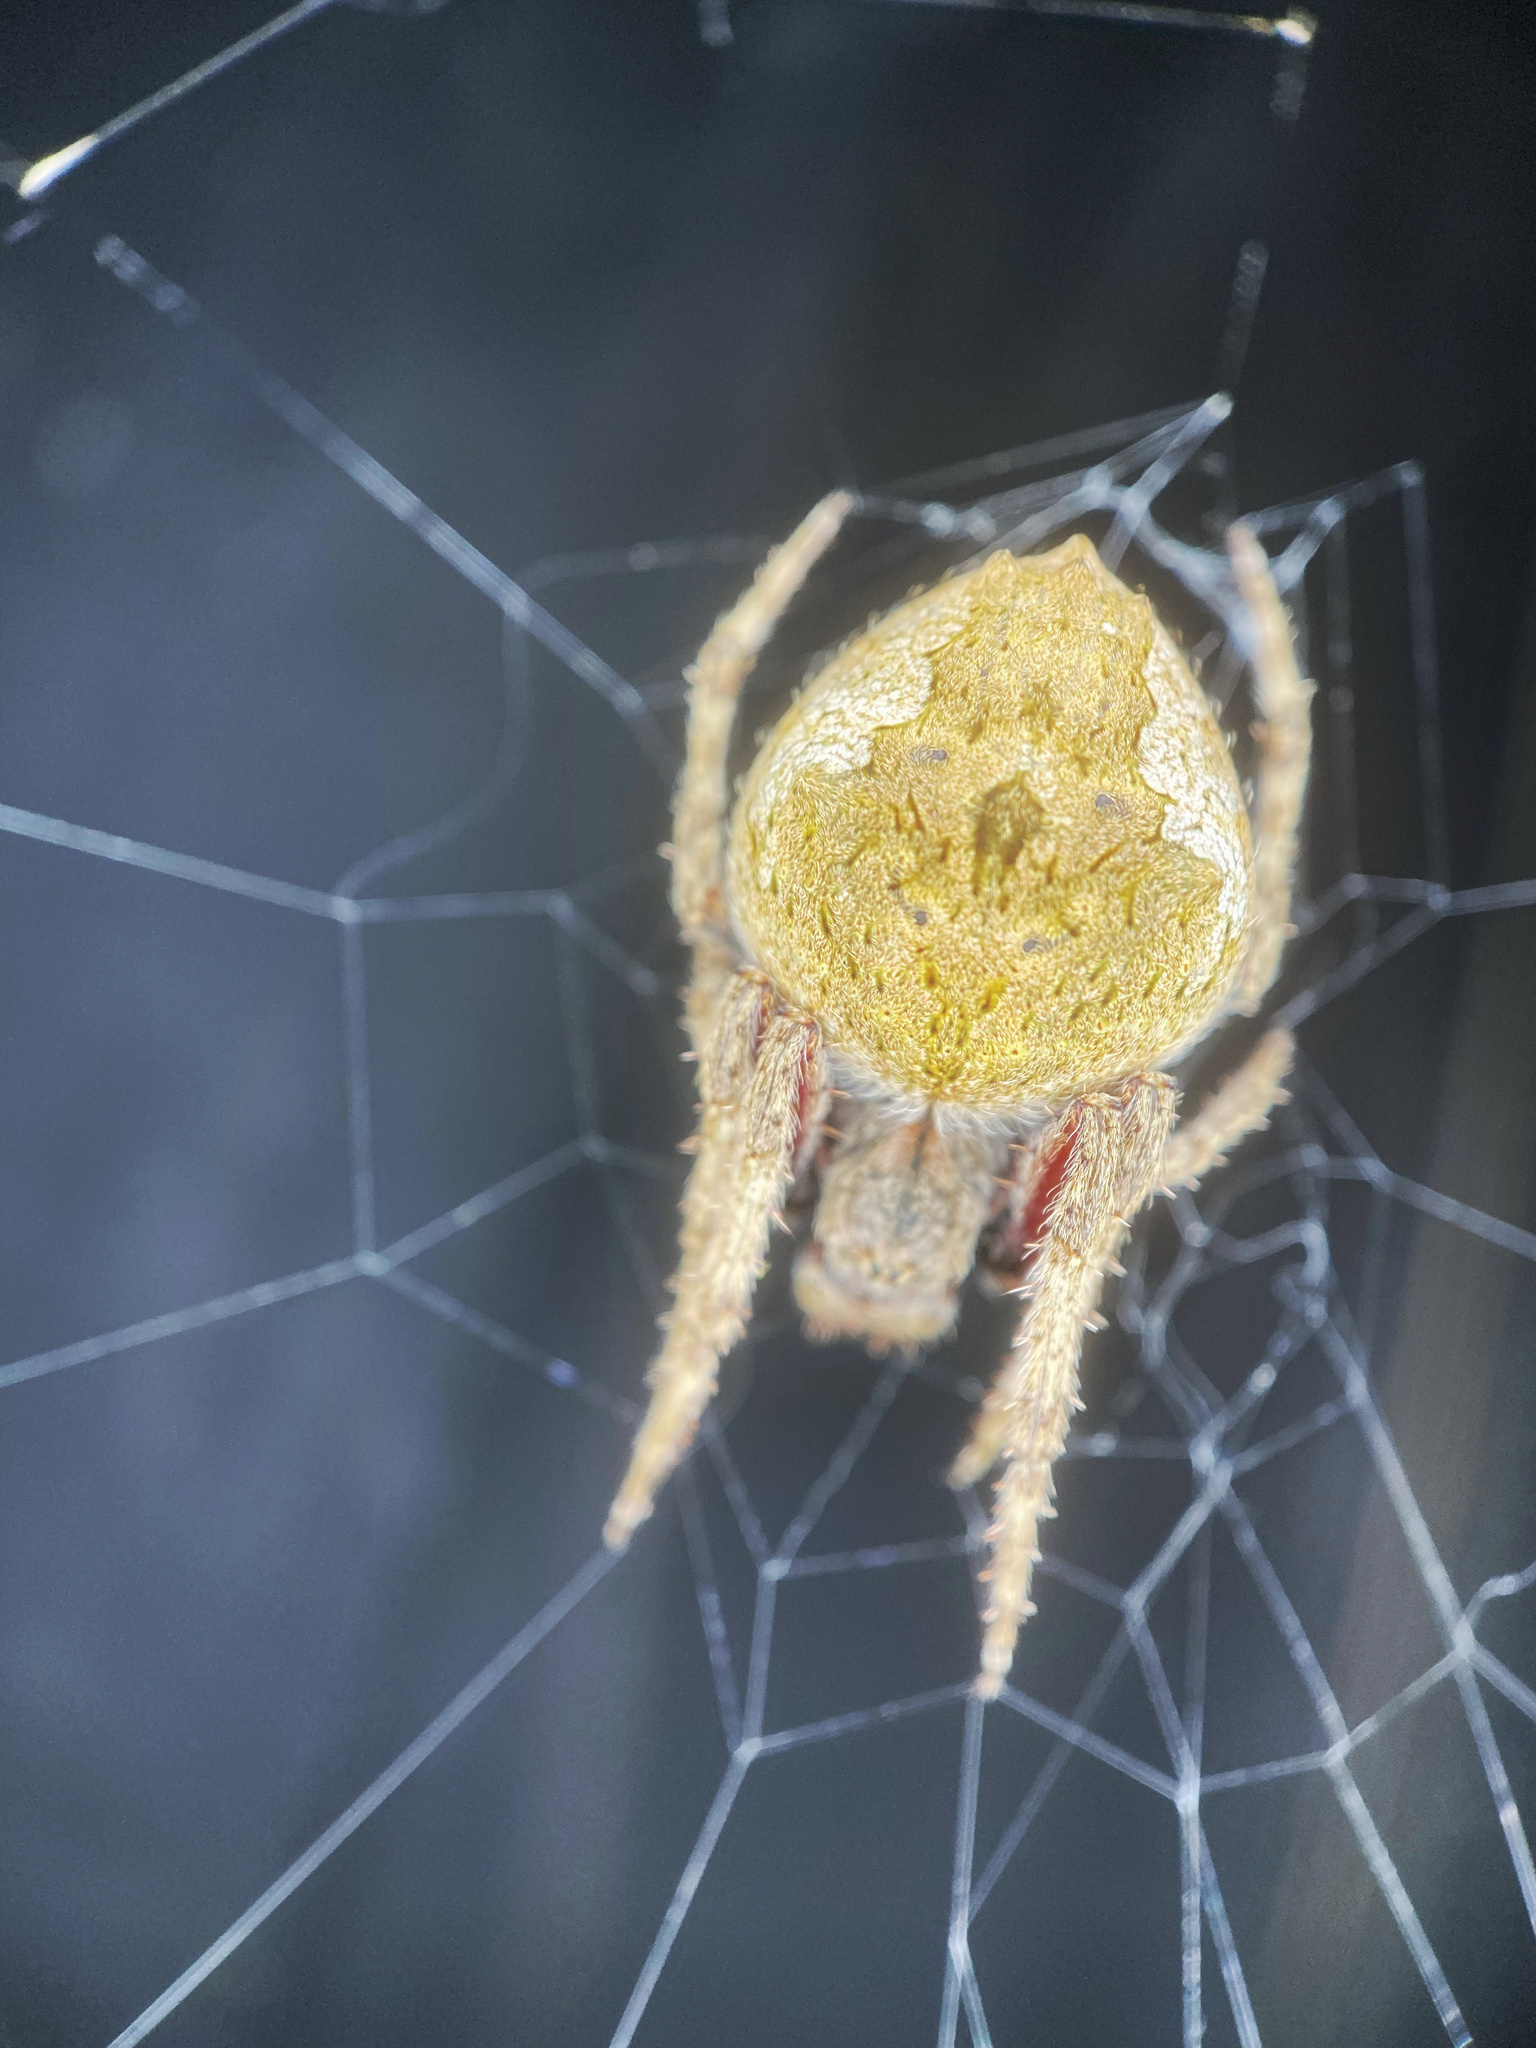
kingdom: Animalia
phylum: Arthropoda
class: Arachnida
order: Araneae
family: Araneidae
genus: Eriophora
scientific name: Eriophora pustulosa
